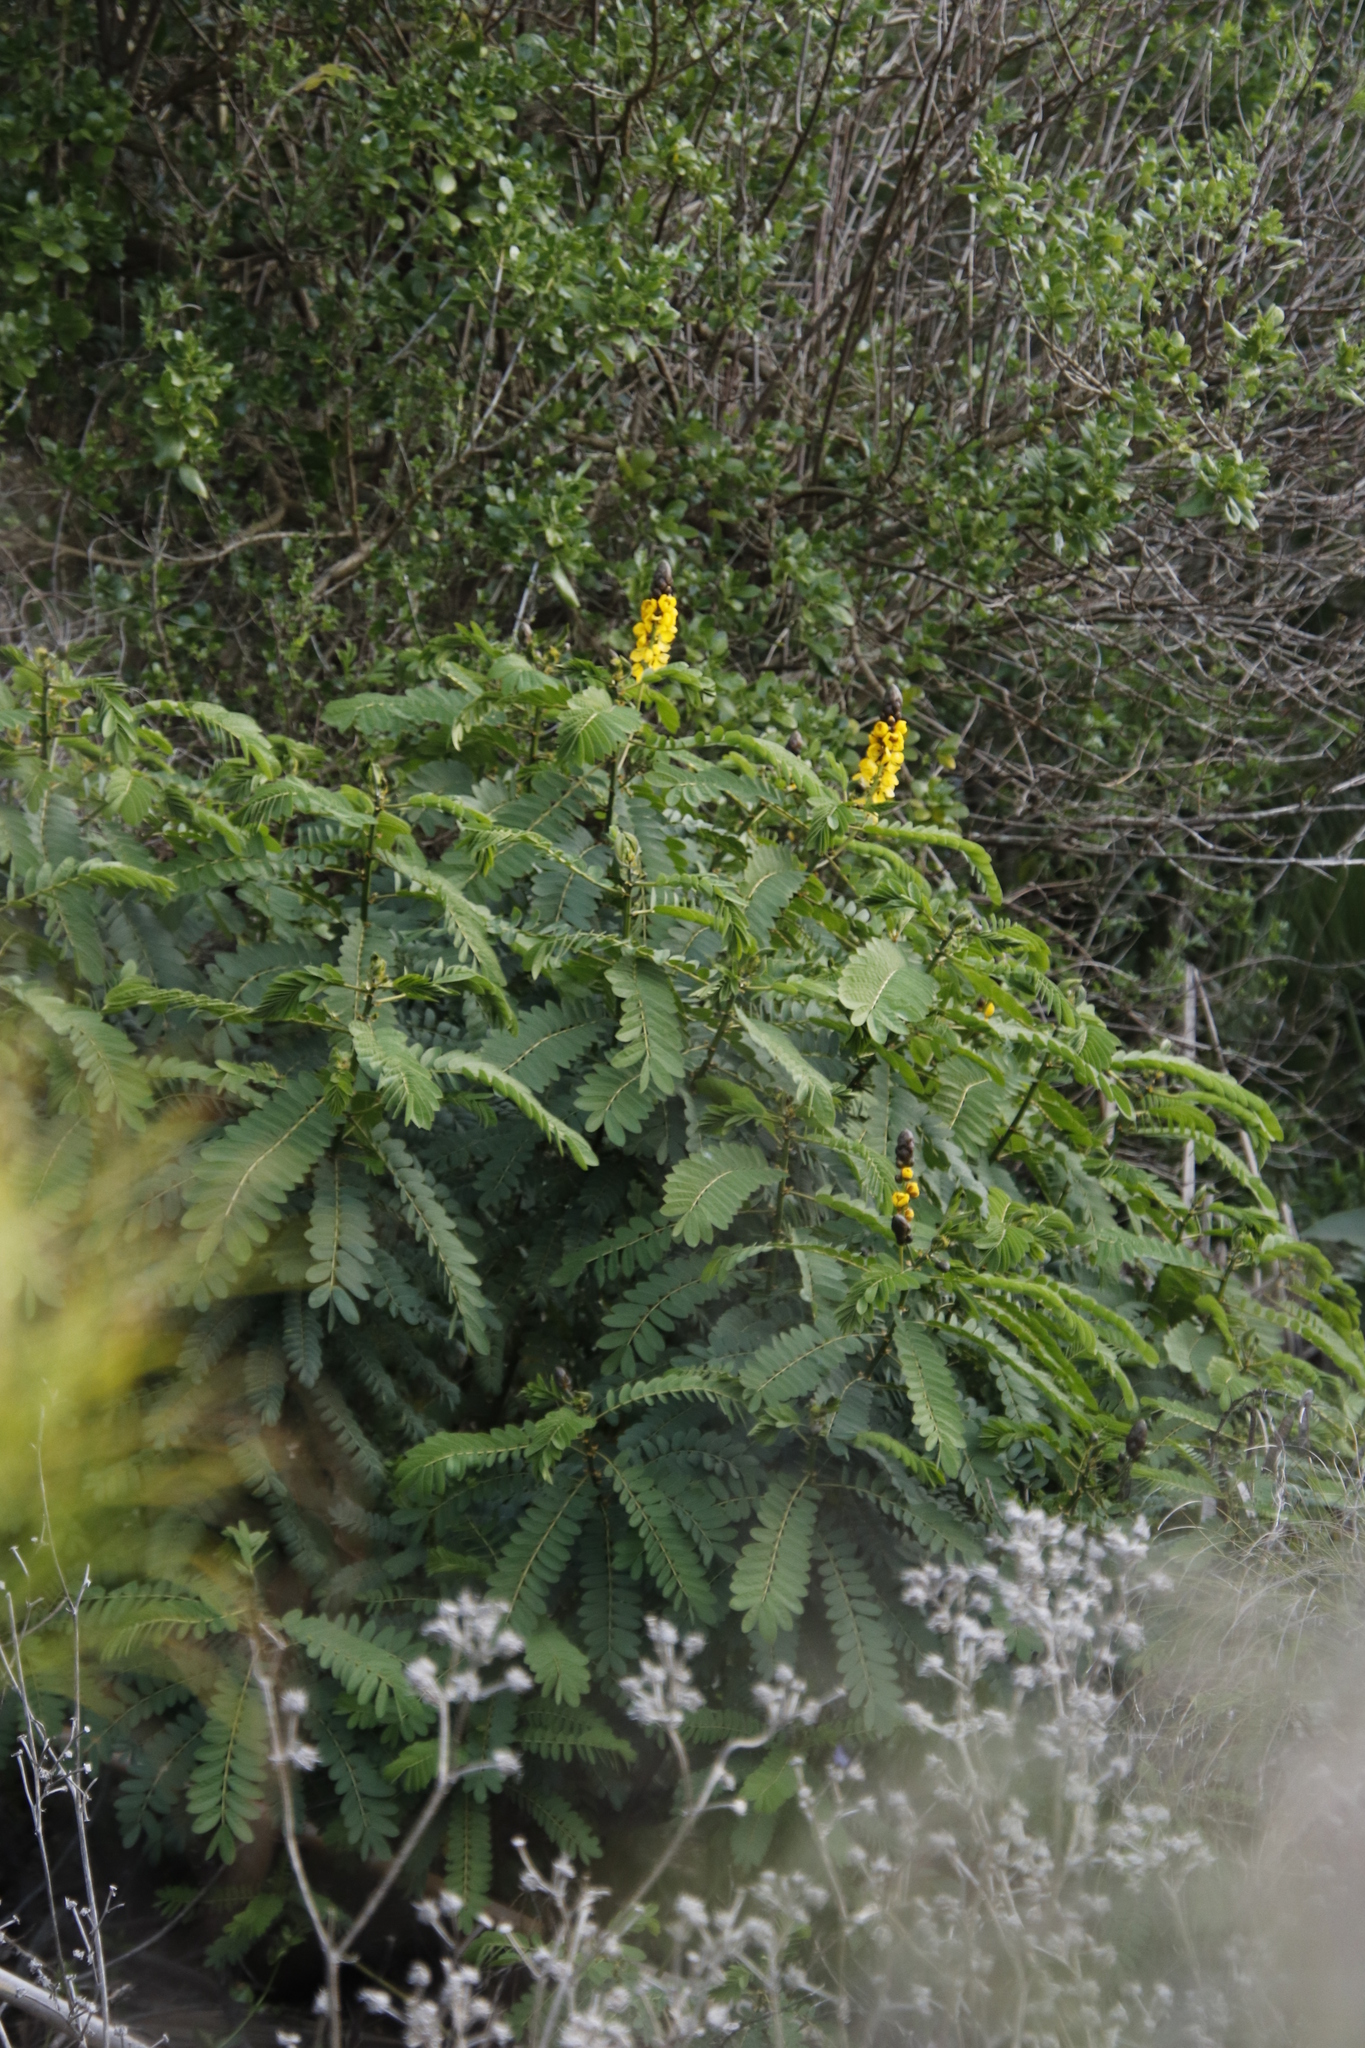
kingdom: Plantae
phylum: Tracheophyta
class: Magnoliopsida
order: Fabales
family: Fabaceae
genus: Senna
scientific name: Senna didymobotrya
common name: African senna
